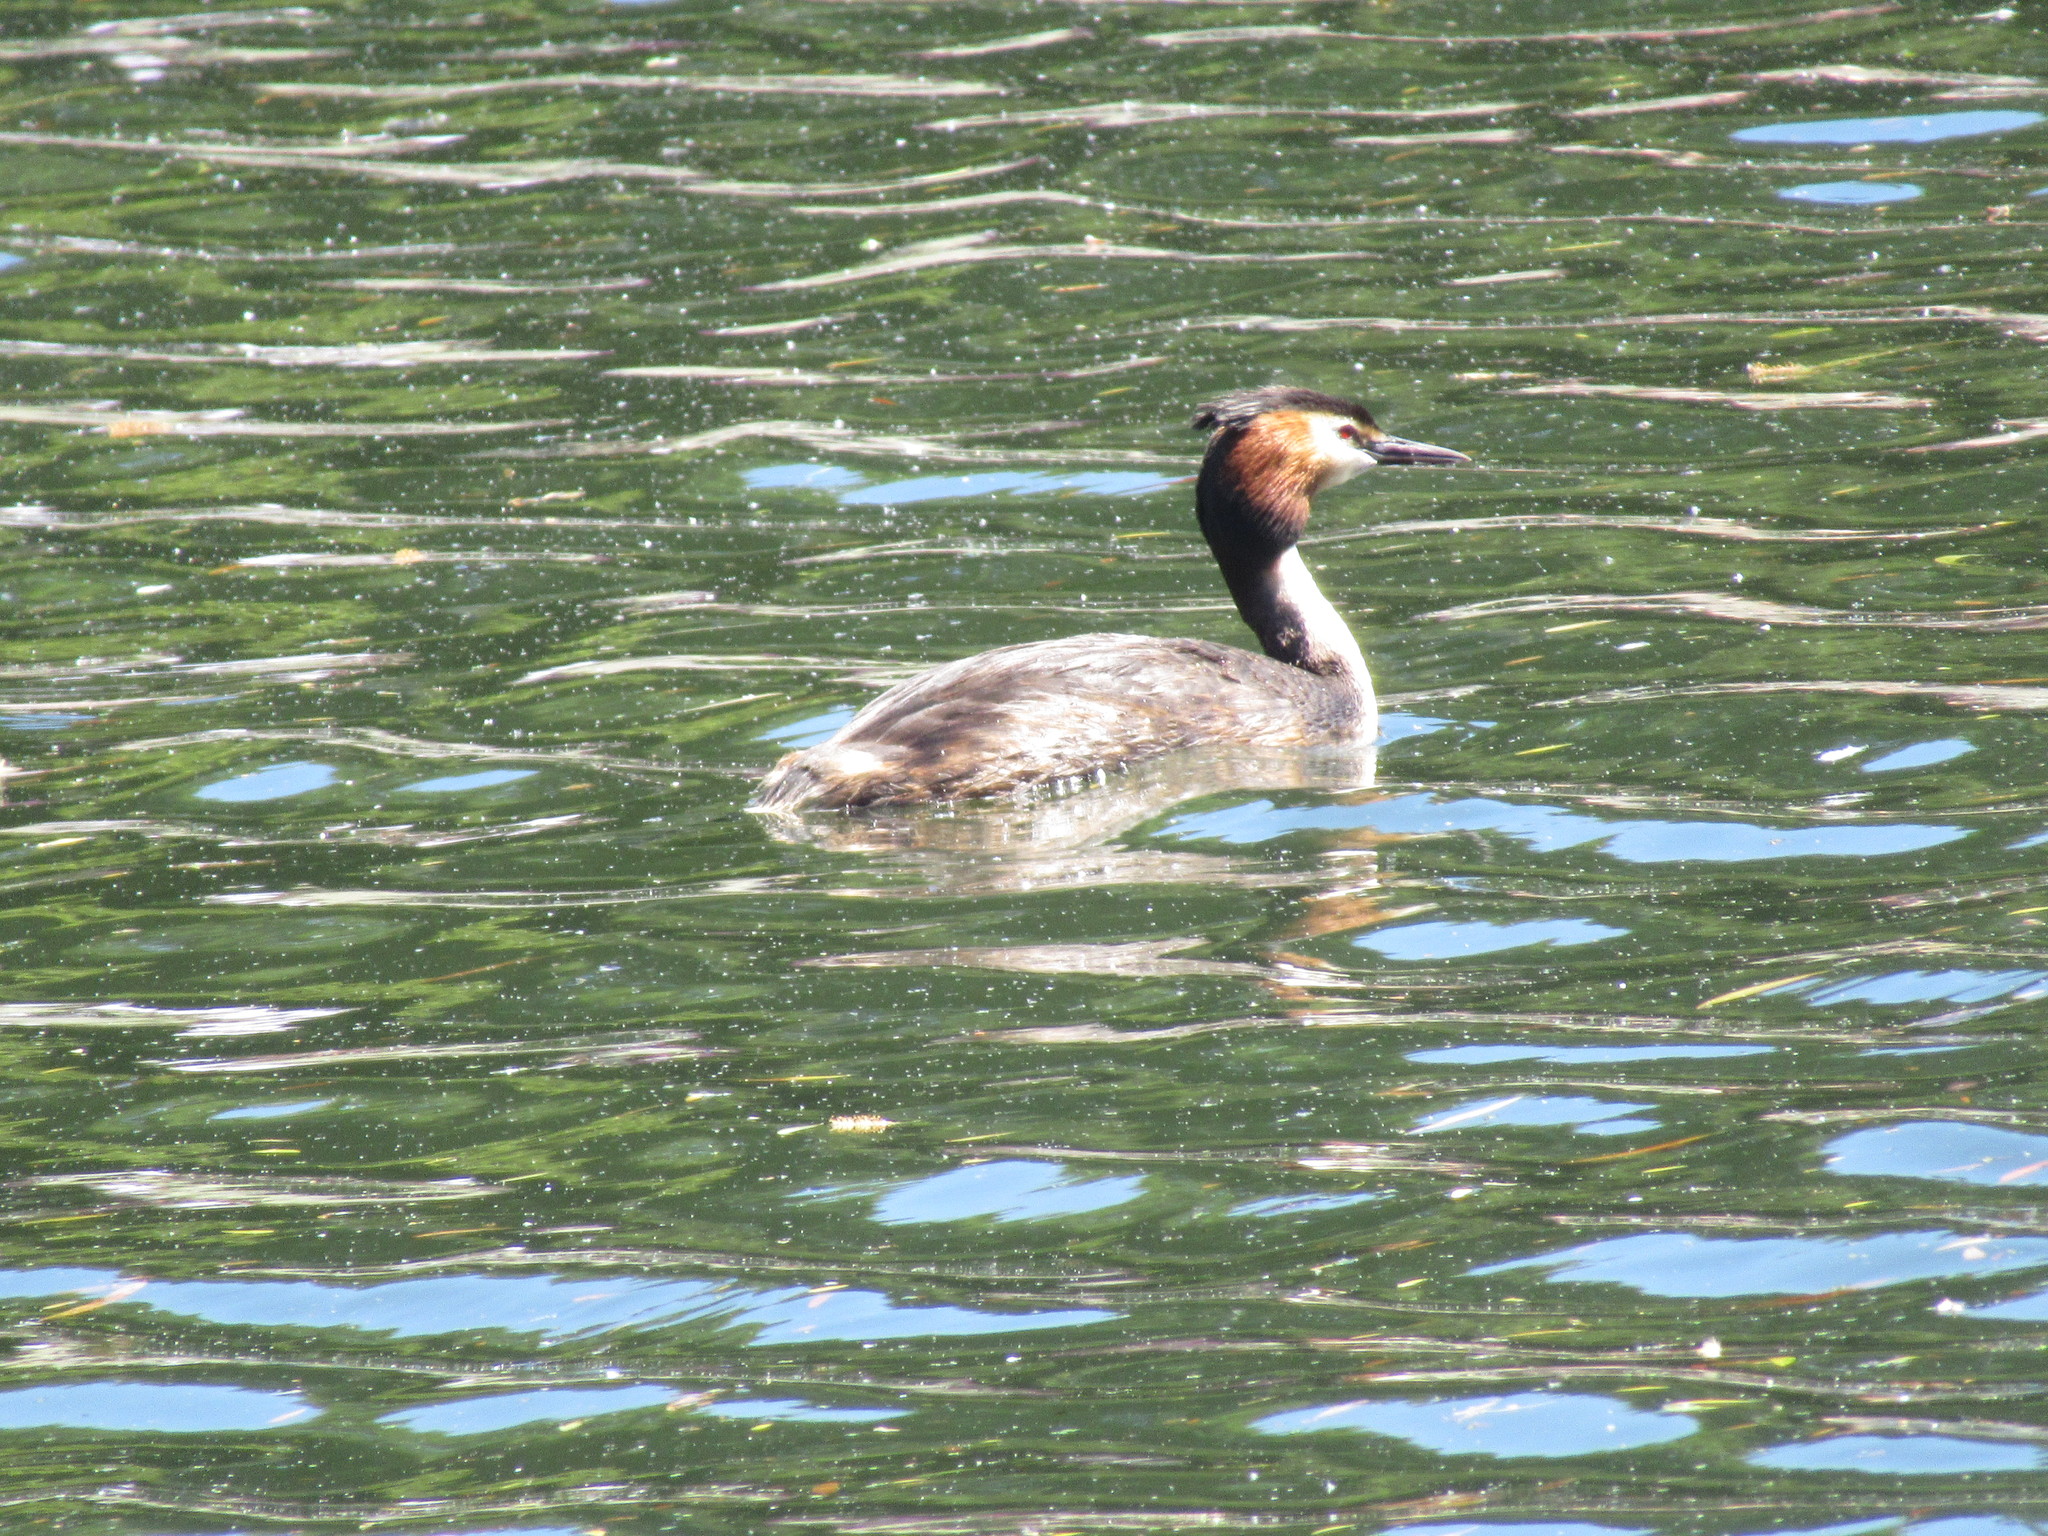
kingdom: Animalia
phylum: Chordata
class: Aves
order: Podicipediformes
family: Podicipedidae
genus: Podiceps
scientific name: Podiceps cristatus
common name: Great crested grebe
